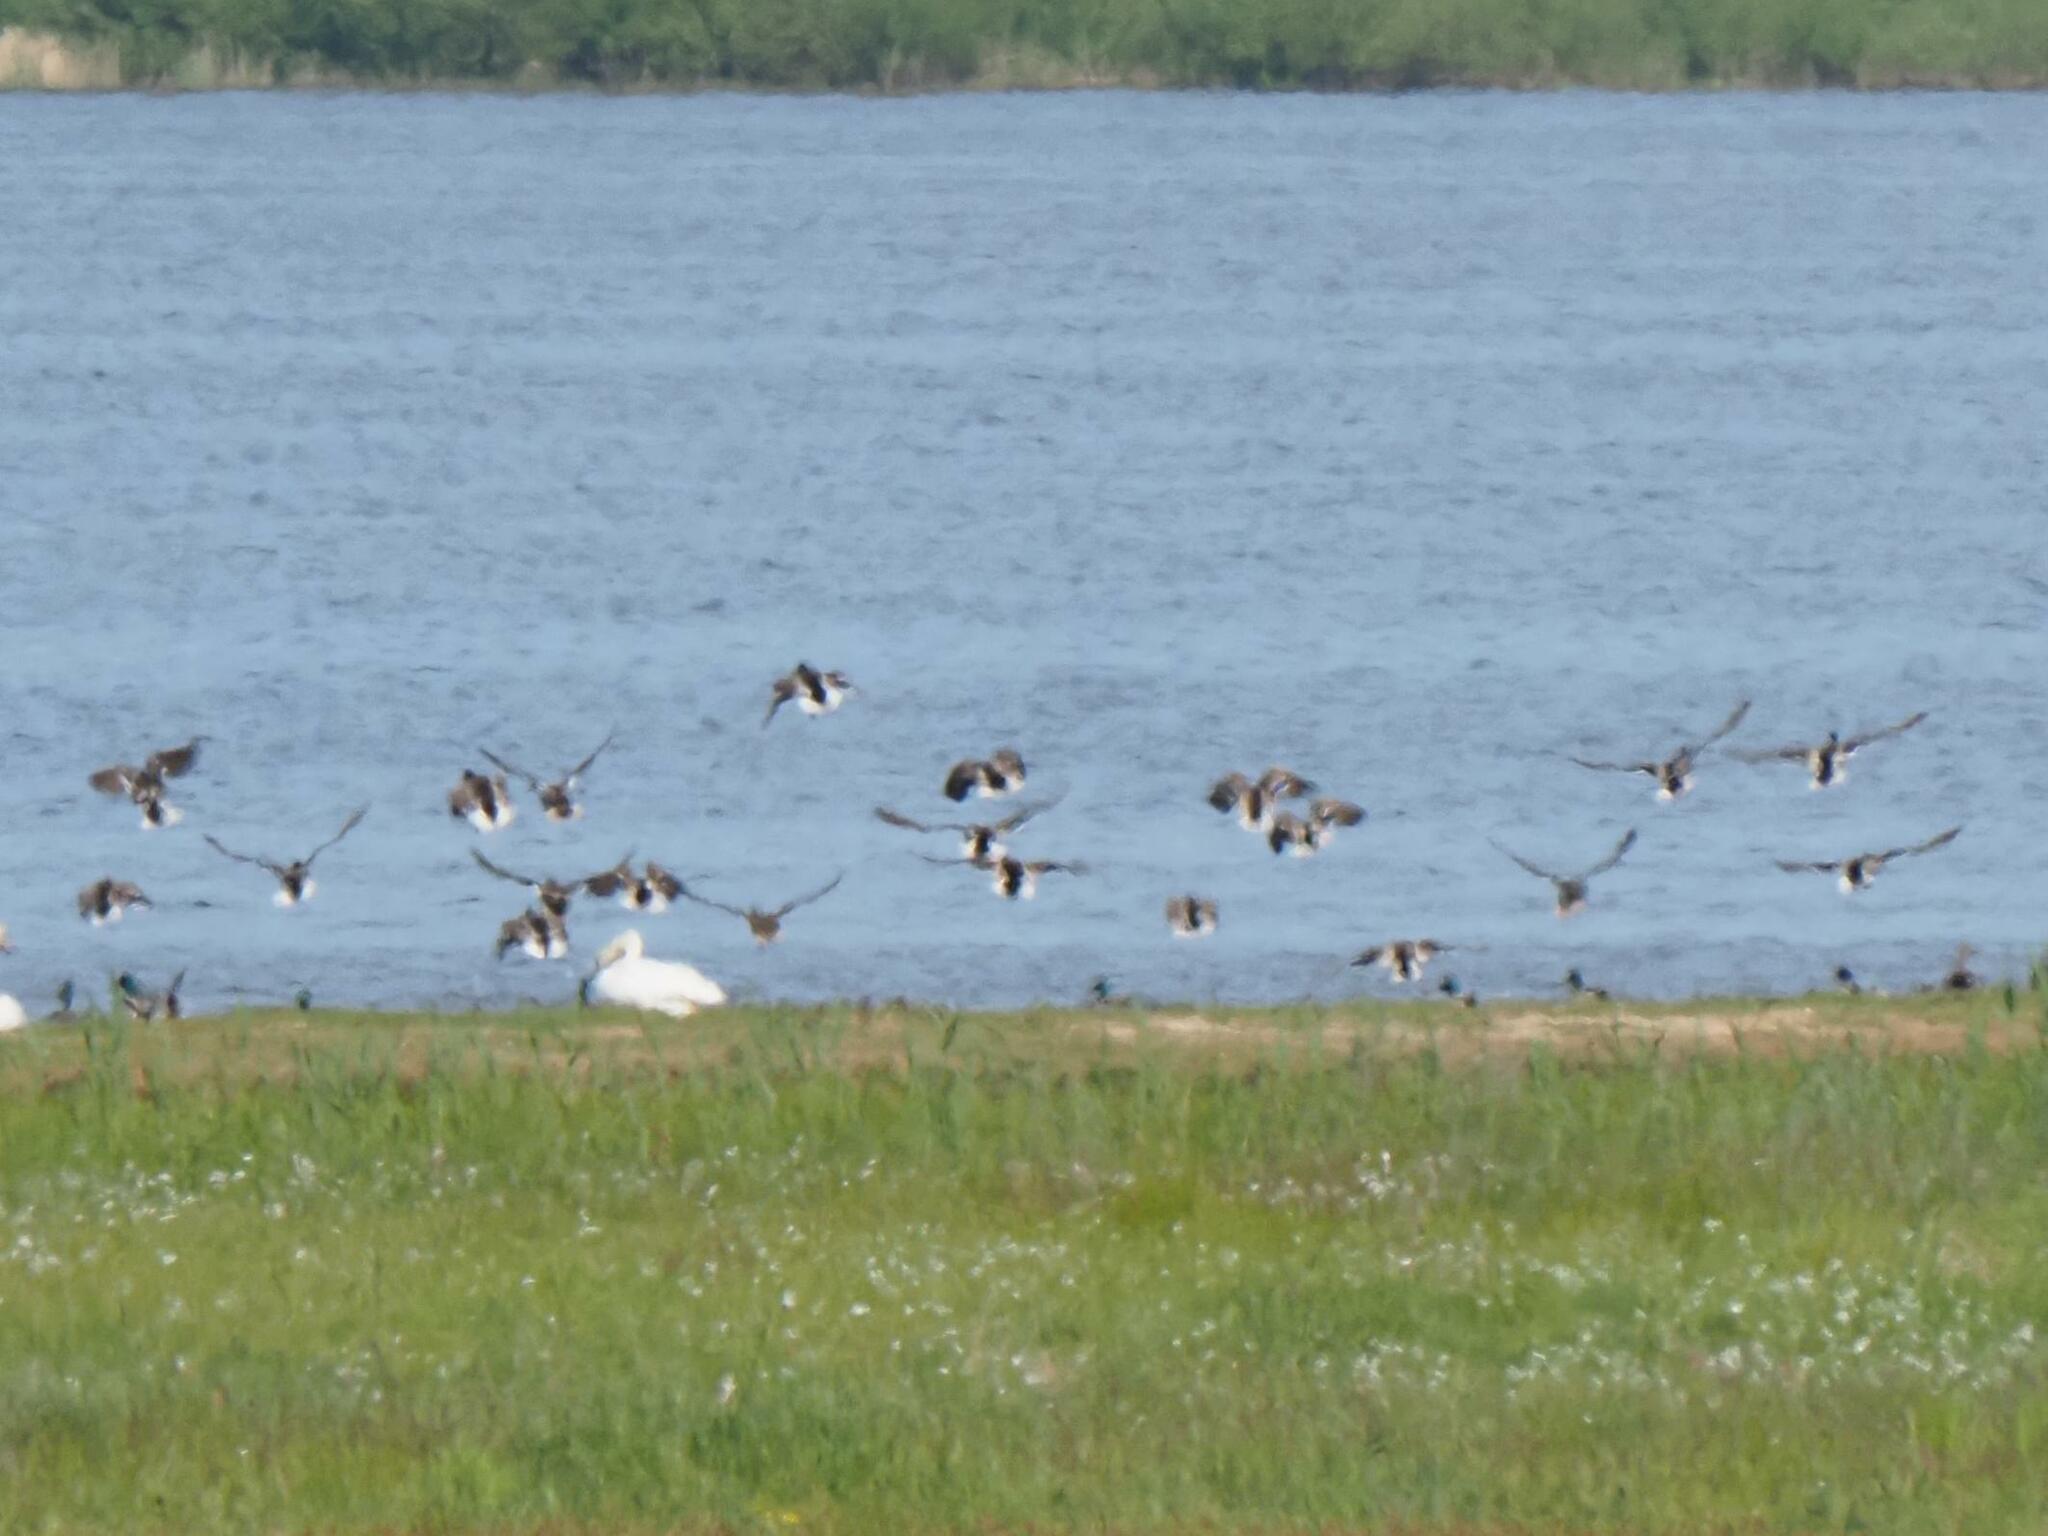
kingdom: Animalia
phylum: Chordata
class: Aves
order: Anseriformes
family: Anatidae
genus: Anas
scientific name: Anas platyrhynchos
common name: Mallard
